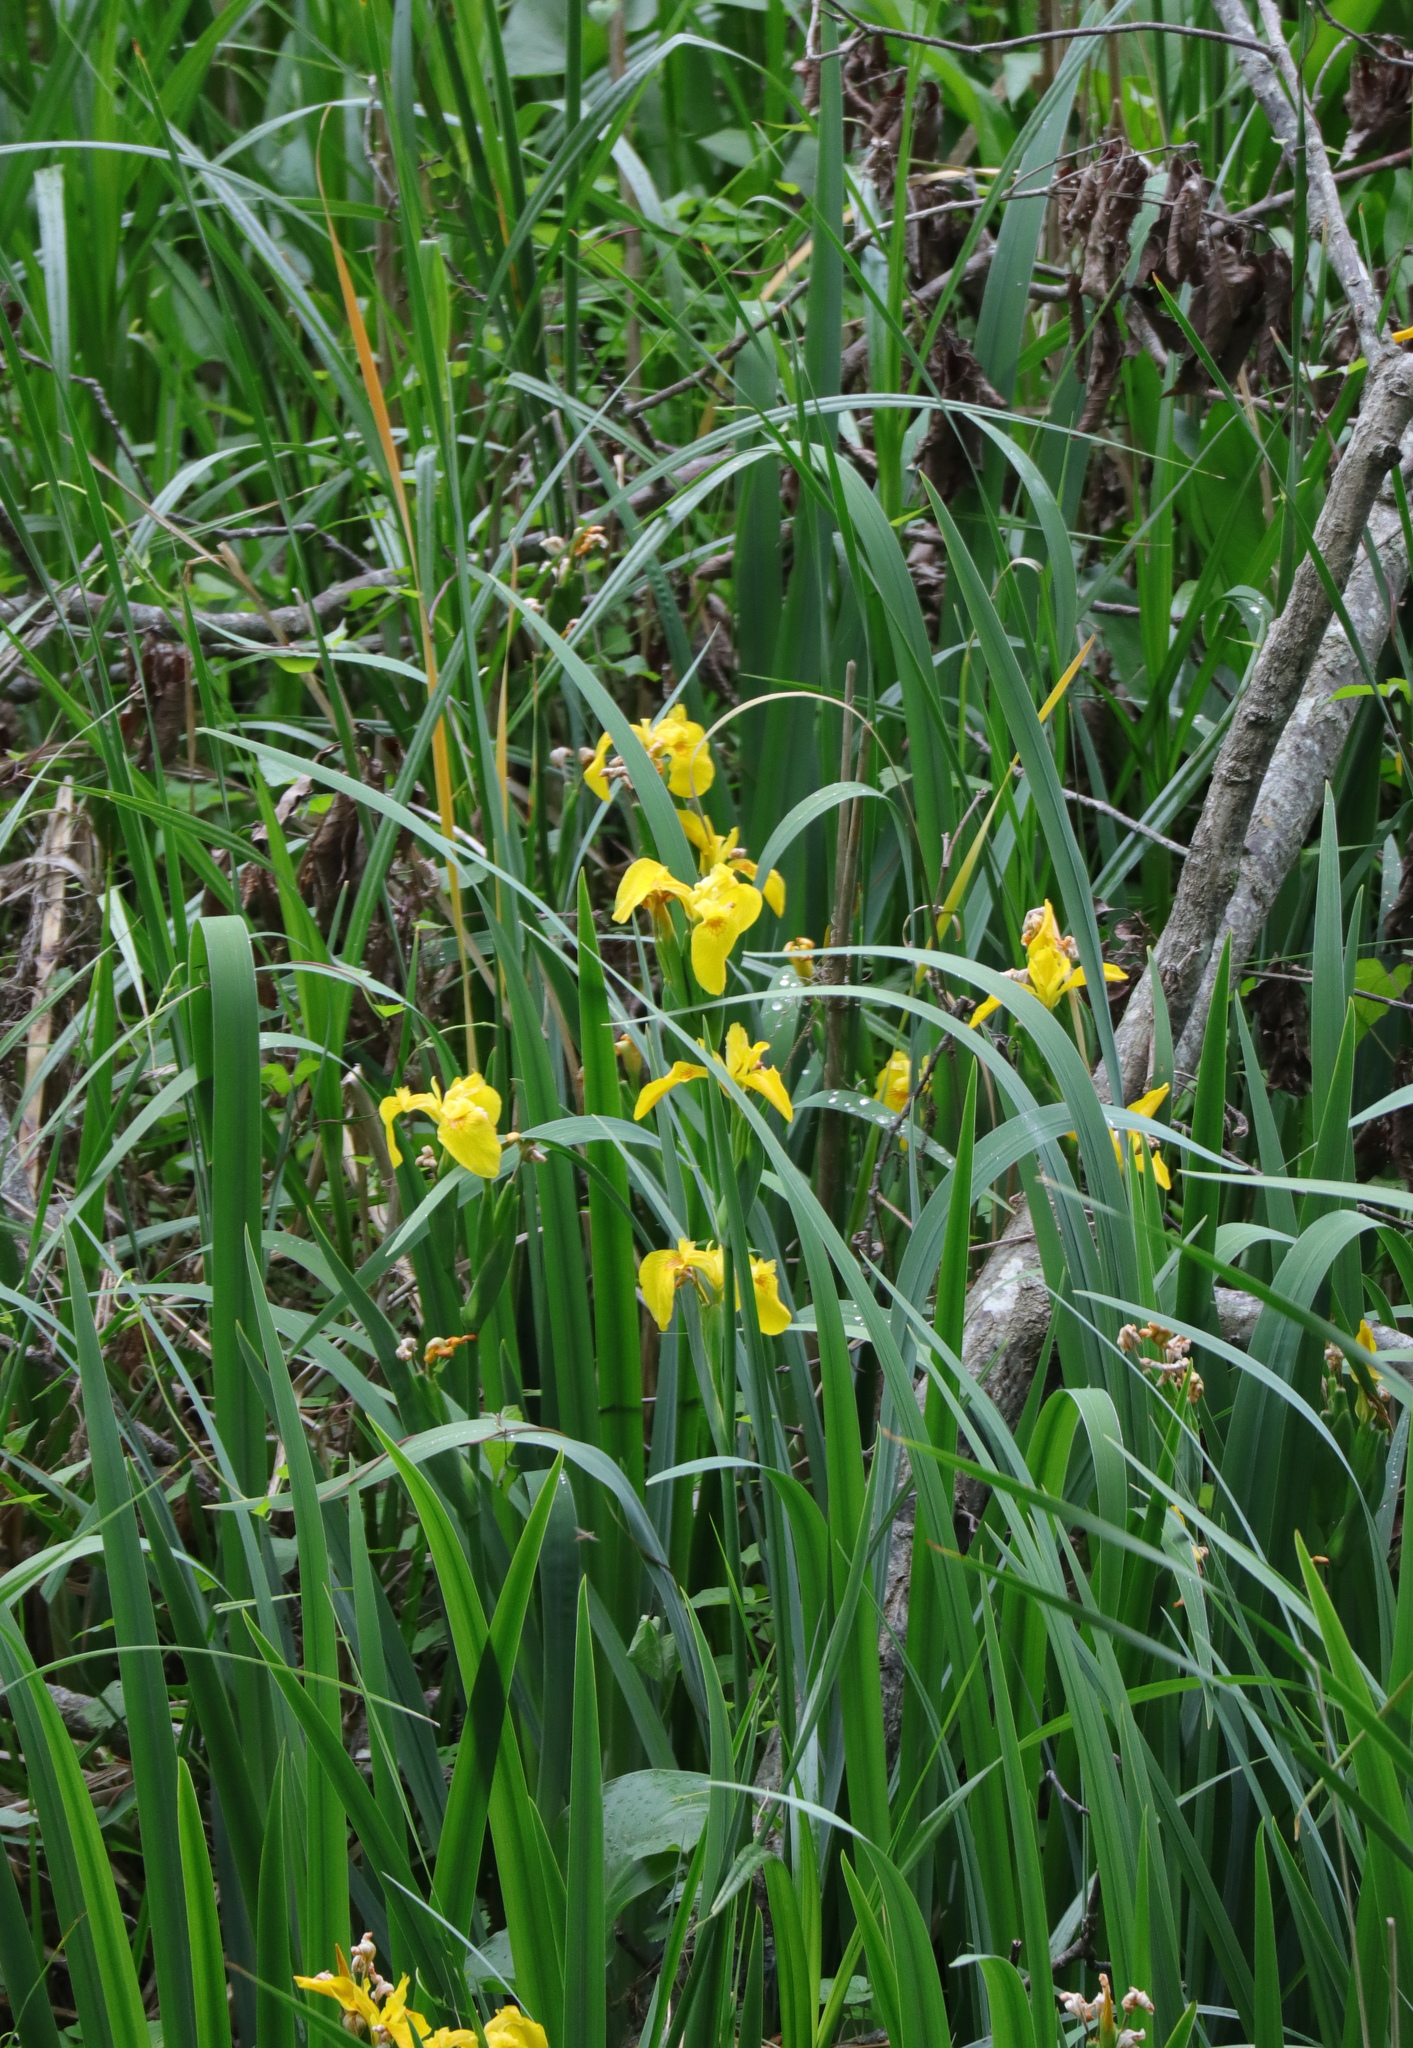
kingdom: Plantae
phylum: Tracheophyta
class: Liliopsida
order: Asparagales
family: Iridaceae
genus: Iris
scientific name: Iris pseudacorus
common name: Yellow flag
